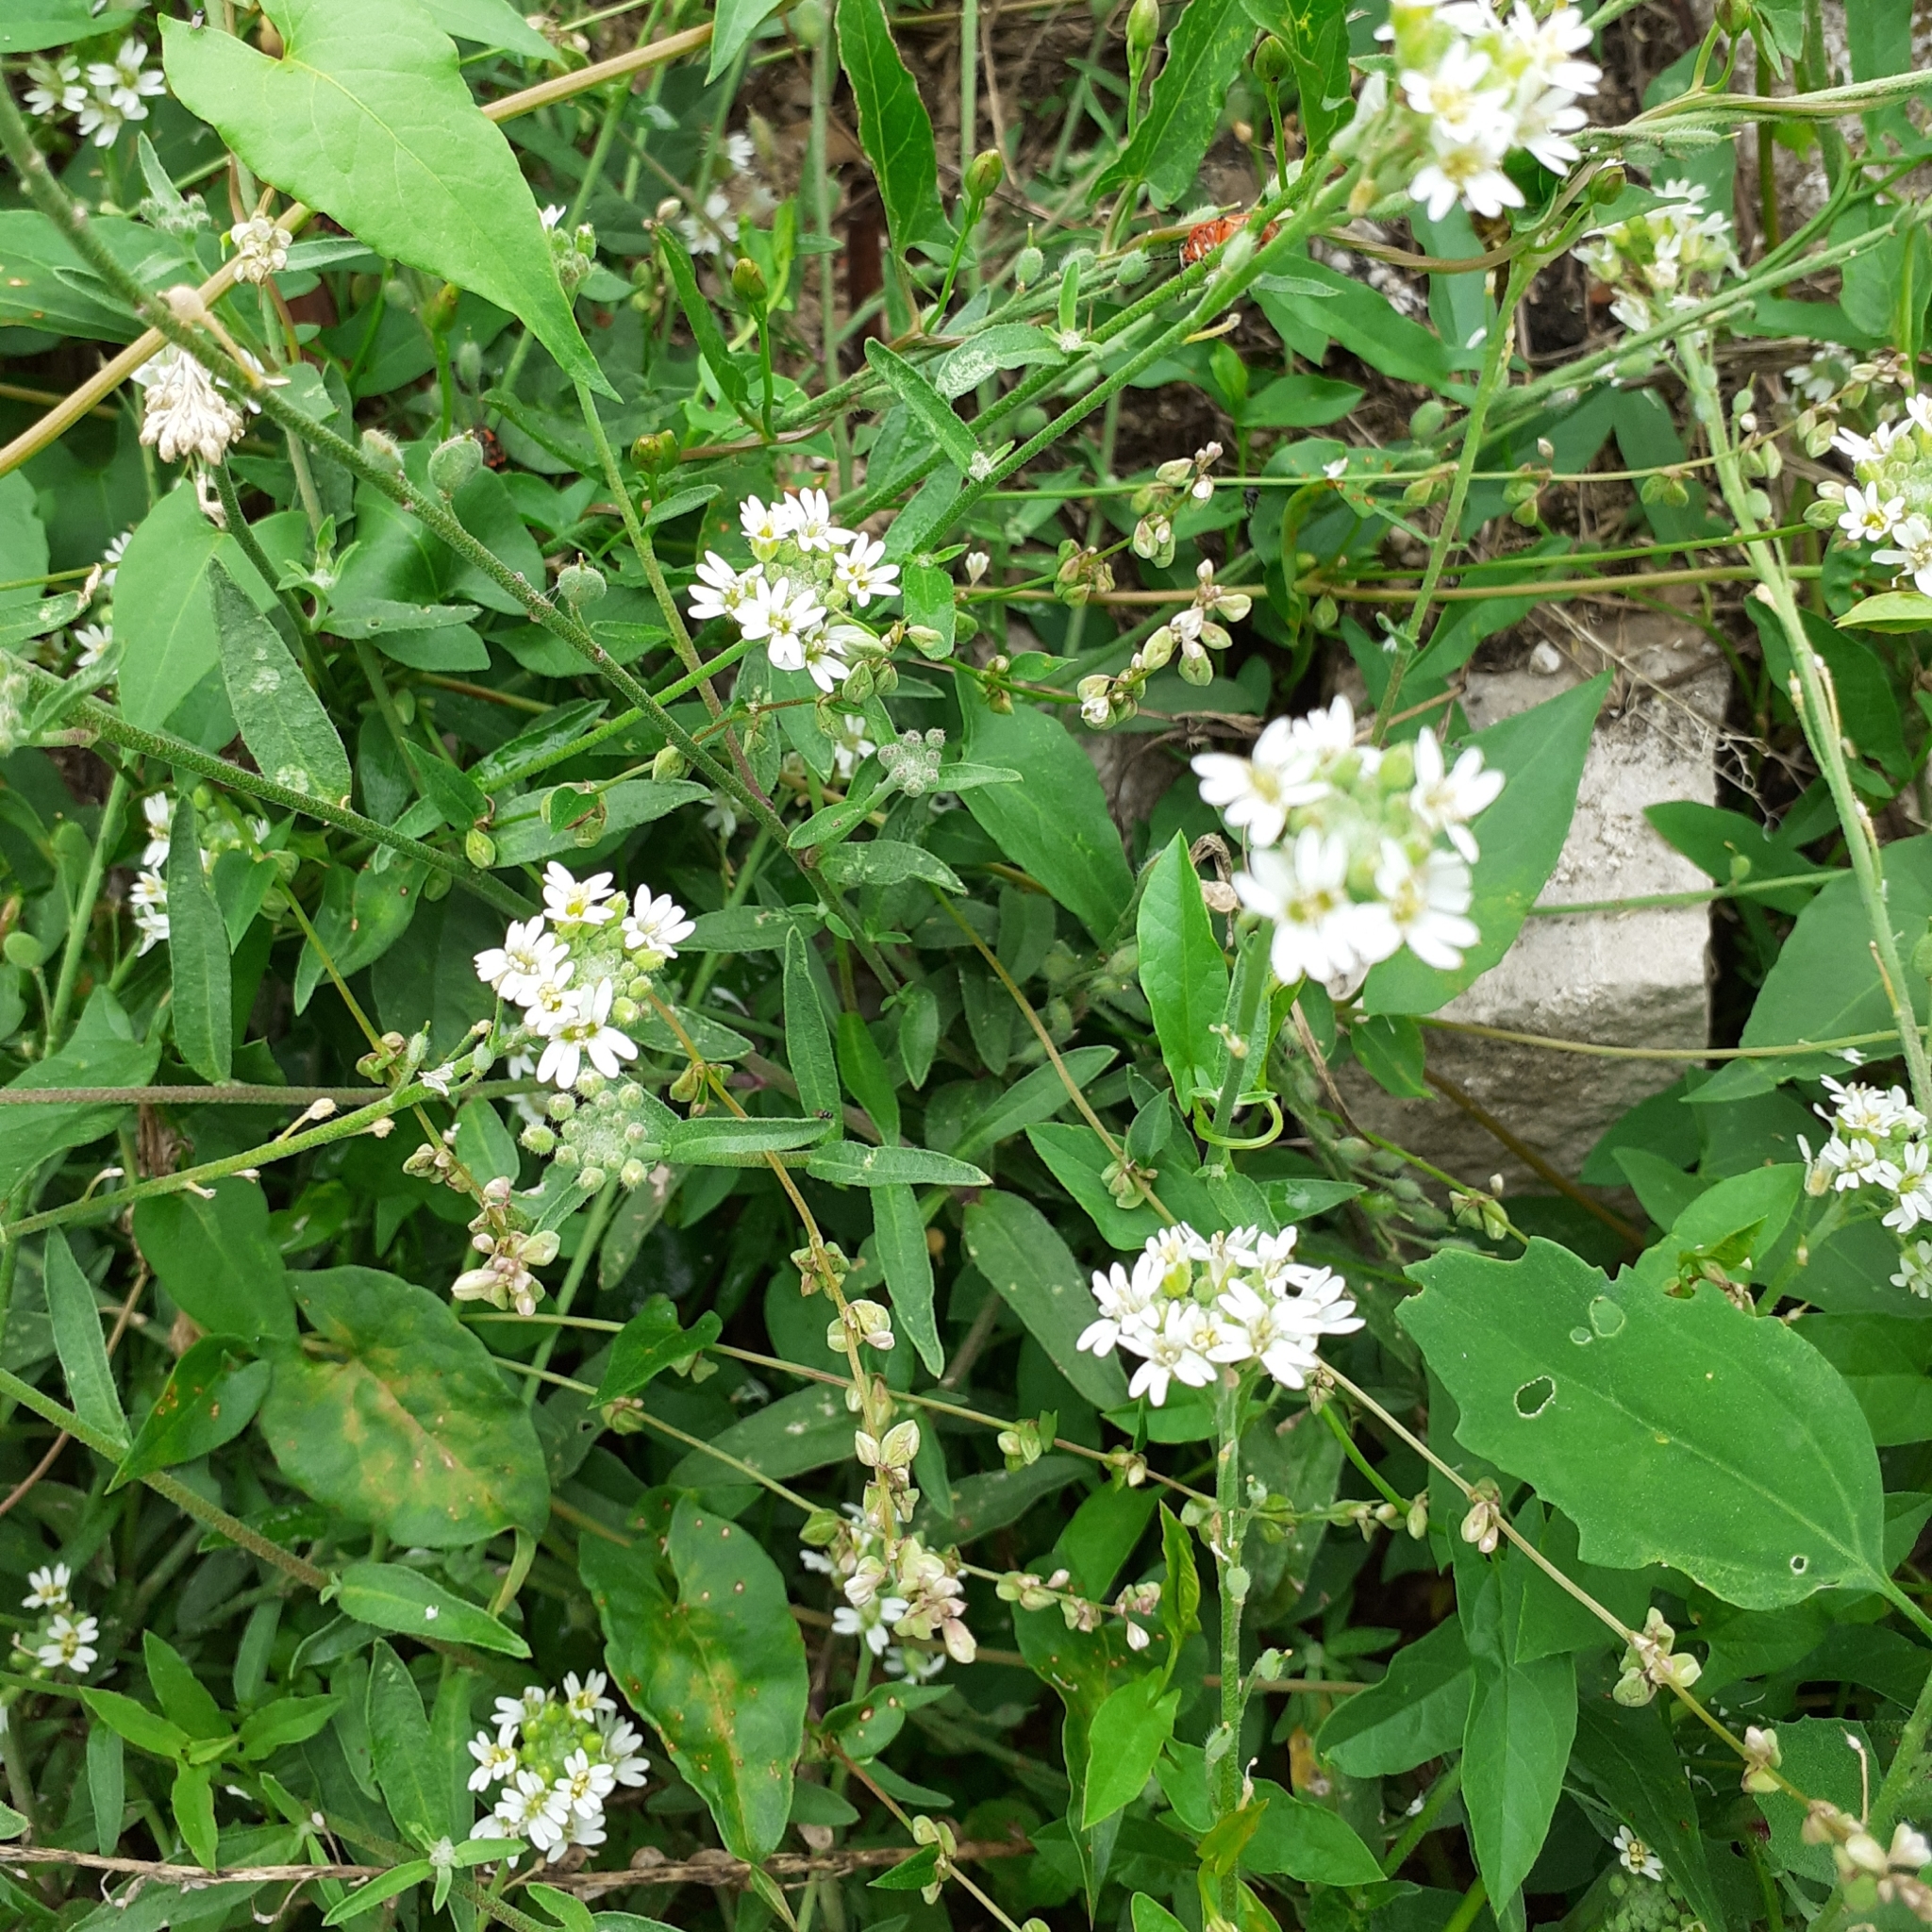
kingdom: Plantae
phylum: Tracheophyta
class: Magnoliopsida
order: Brassicales
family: Brassicaceae
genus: Berteroa
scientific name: Berteroa incana
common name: Hoary alison
